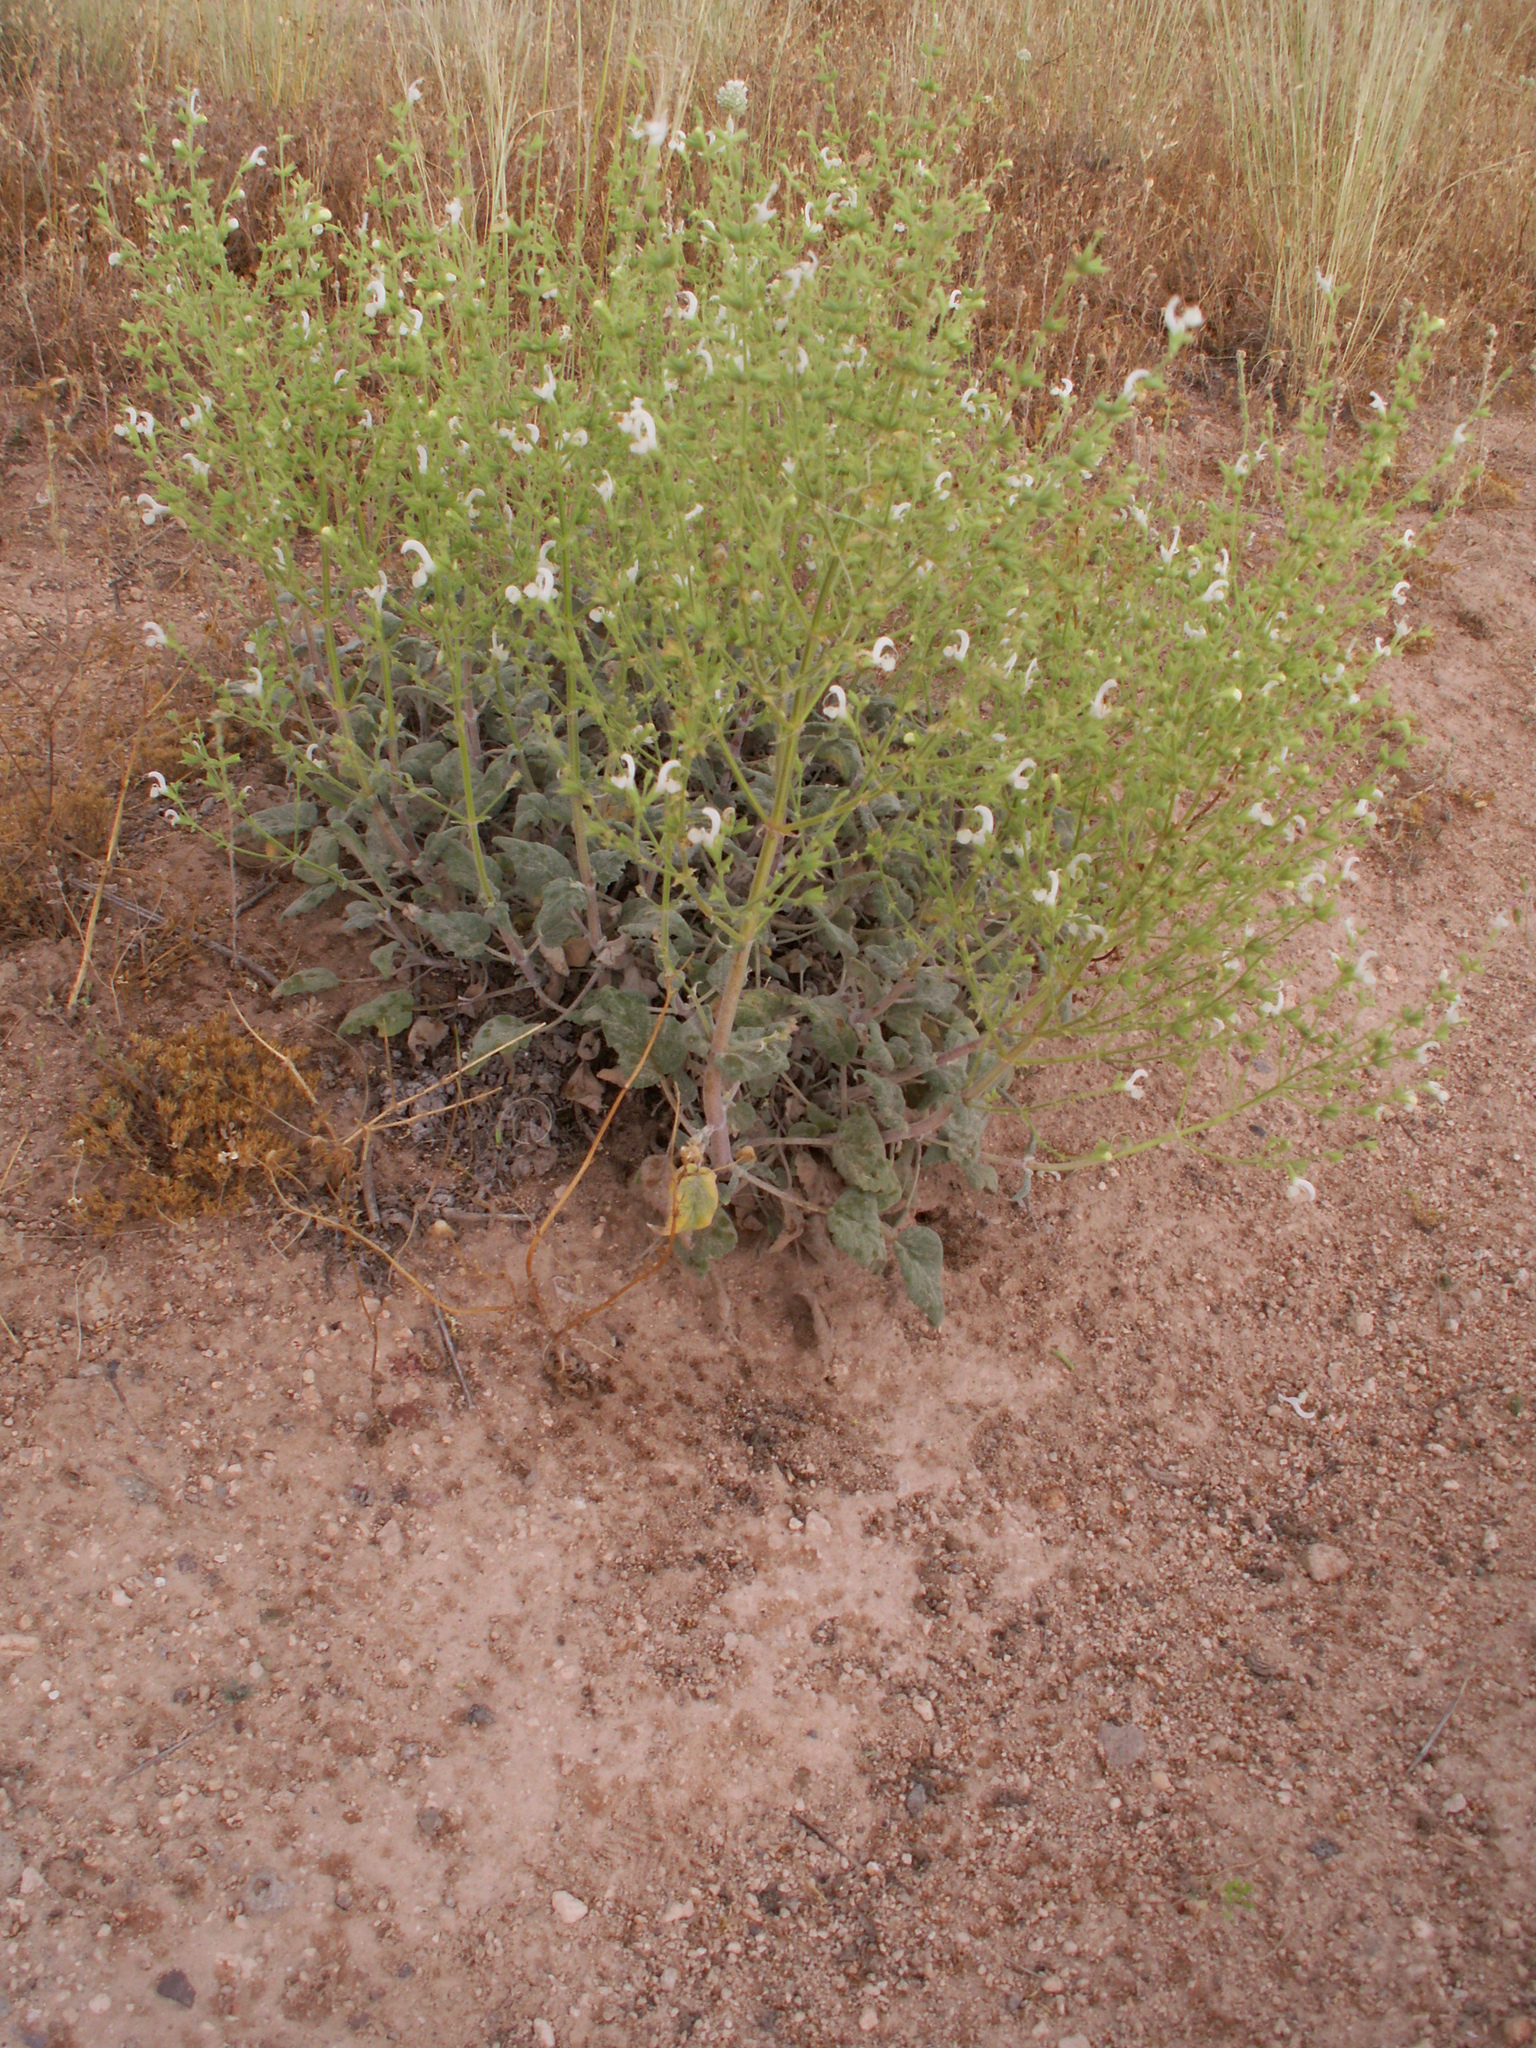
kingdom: Plantae
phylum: Tracheophyta
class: Magnoliopsida
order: Lamiales
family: Lamiaceae
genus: Salvia
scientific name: Salvia candidissima
